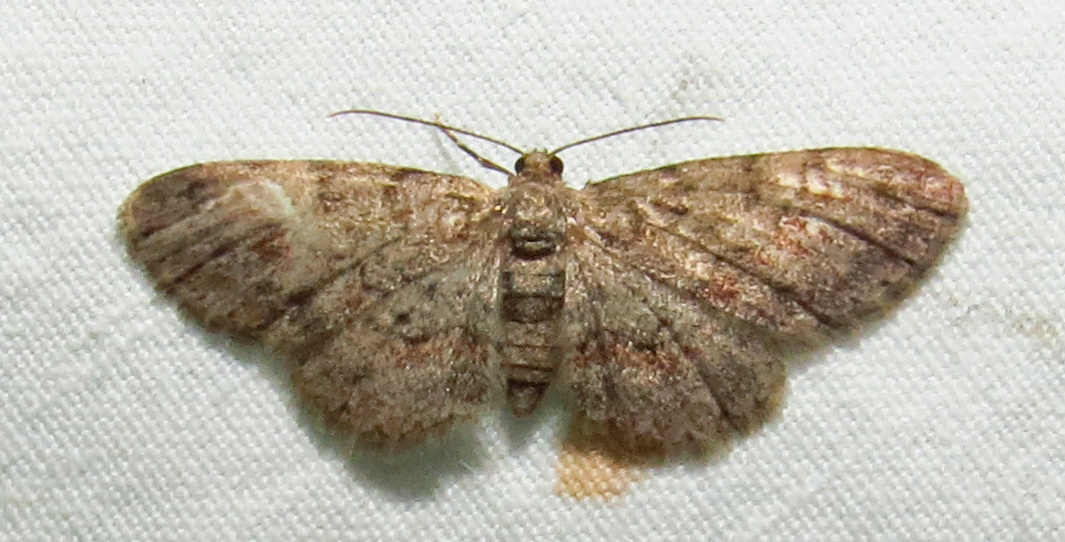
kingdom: Animalia
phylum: Arthropoda
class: Insecta
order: Lepidoptera
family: Geometridae
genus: Glenoides
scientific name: Glenoides texanaria
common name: Texas gray
